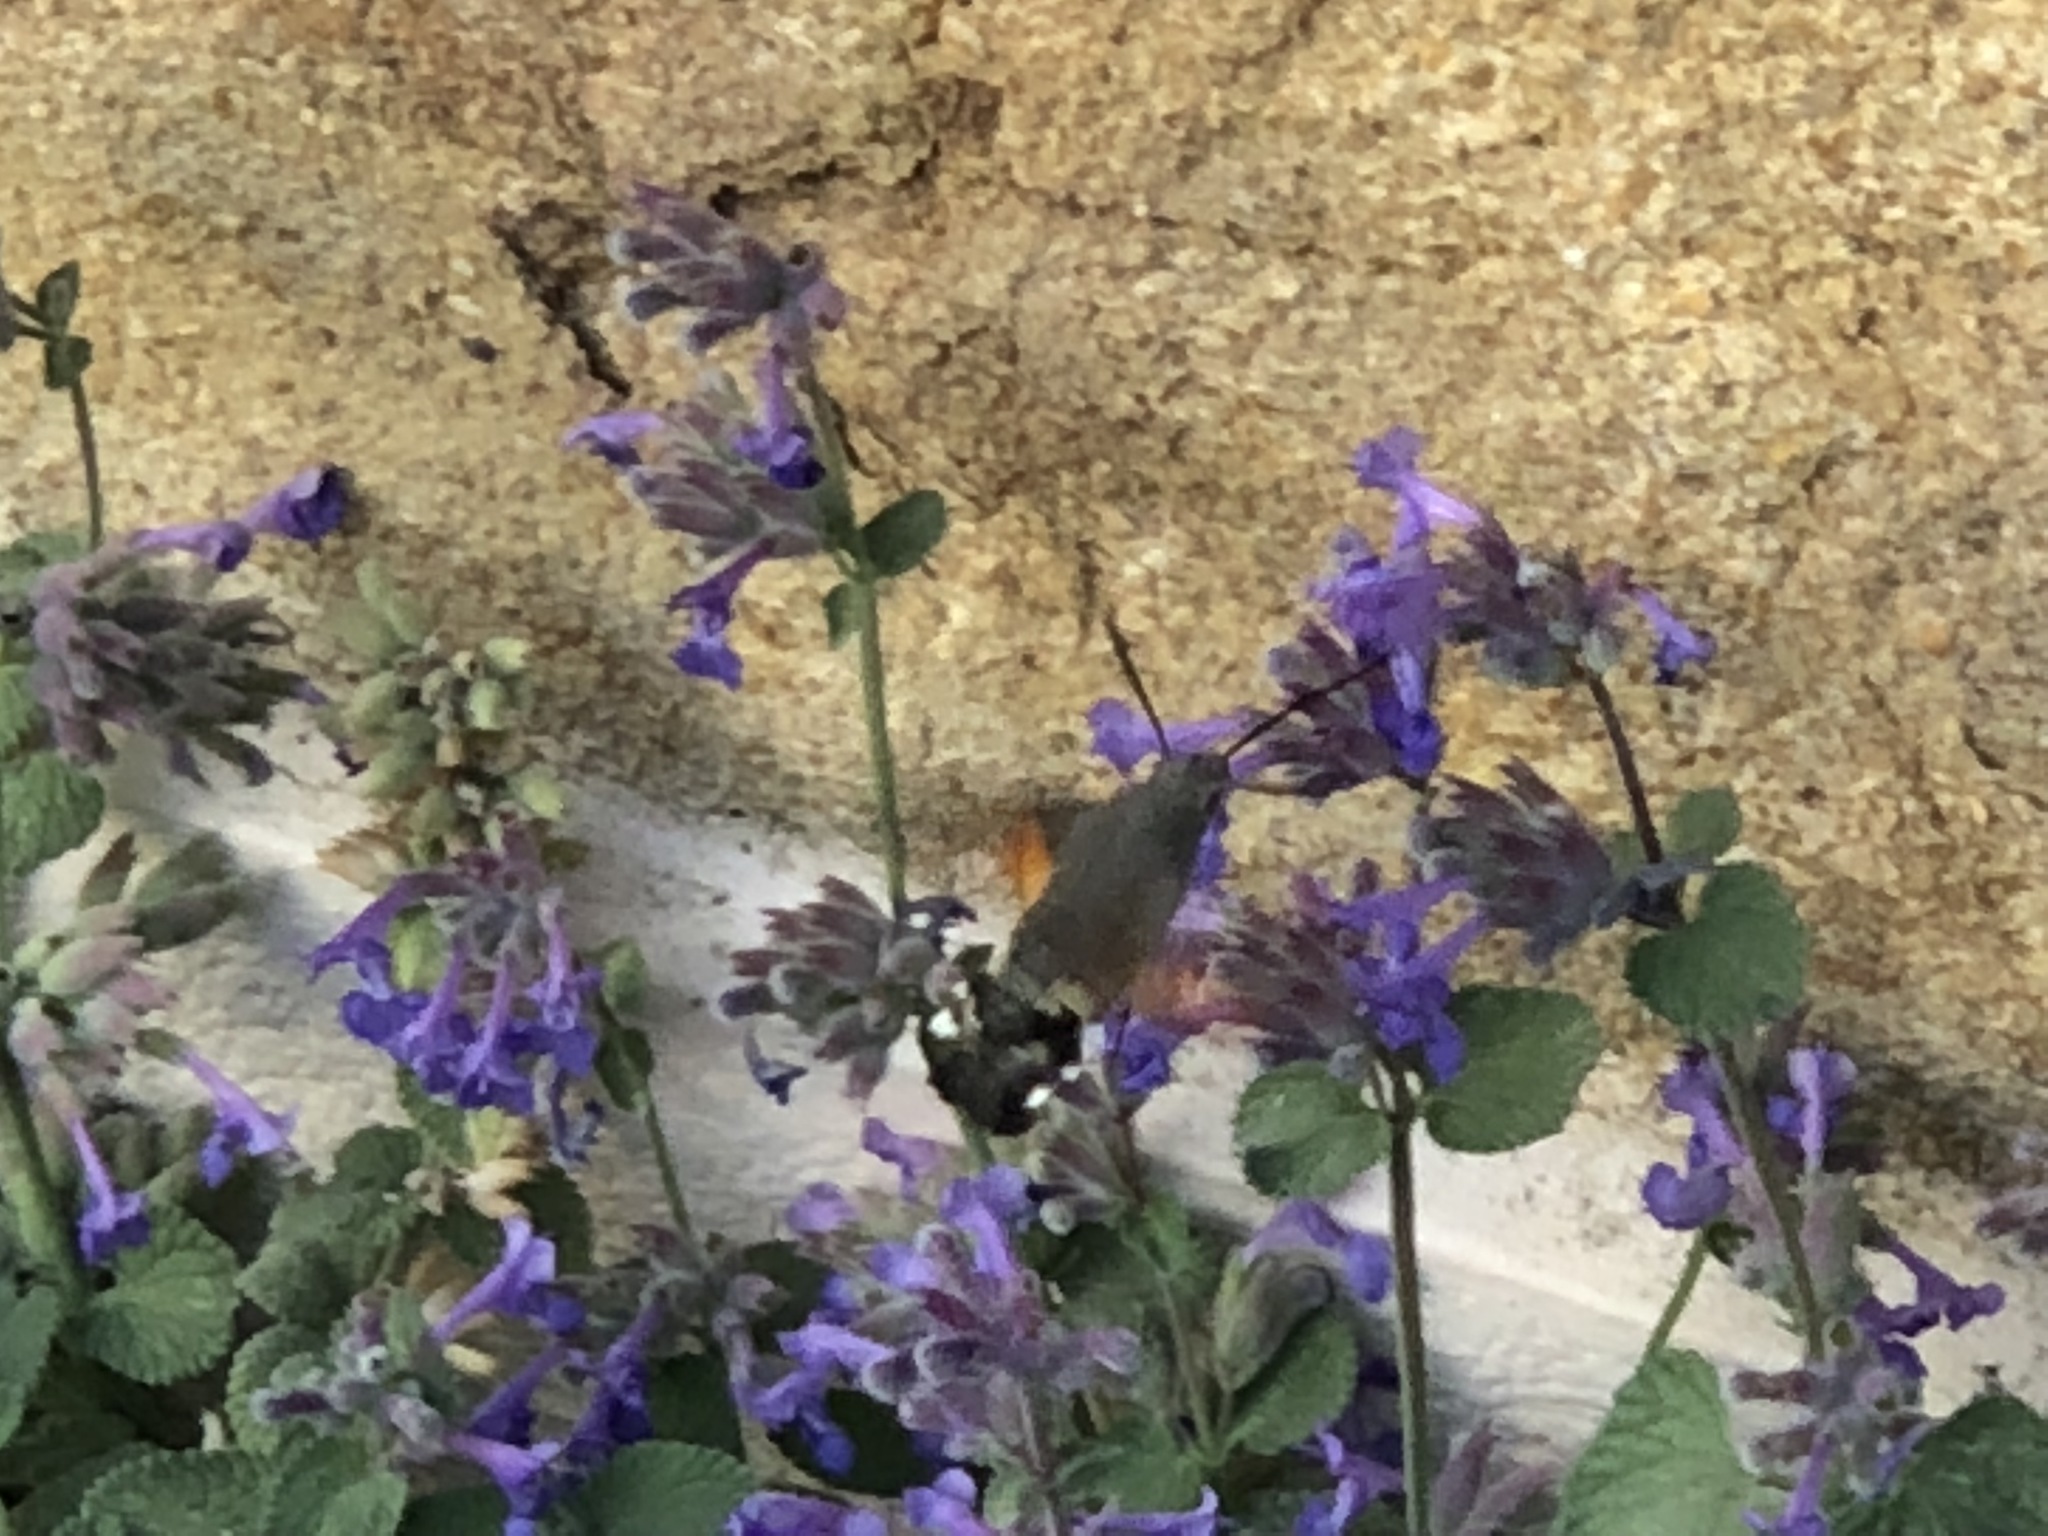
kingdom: Animalia
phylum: Arthropoda
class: Insecta
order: Lepidoptera
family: Sphingidae
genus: Macroglossum
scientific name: Macroglossum stellatarum
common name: Humming-bird hawk-moth
